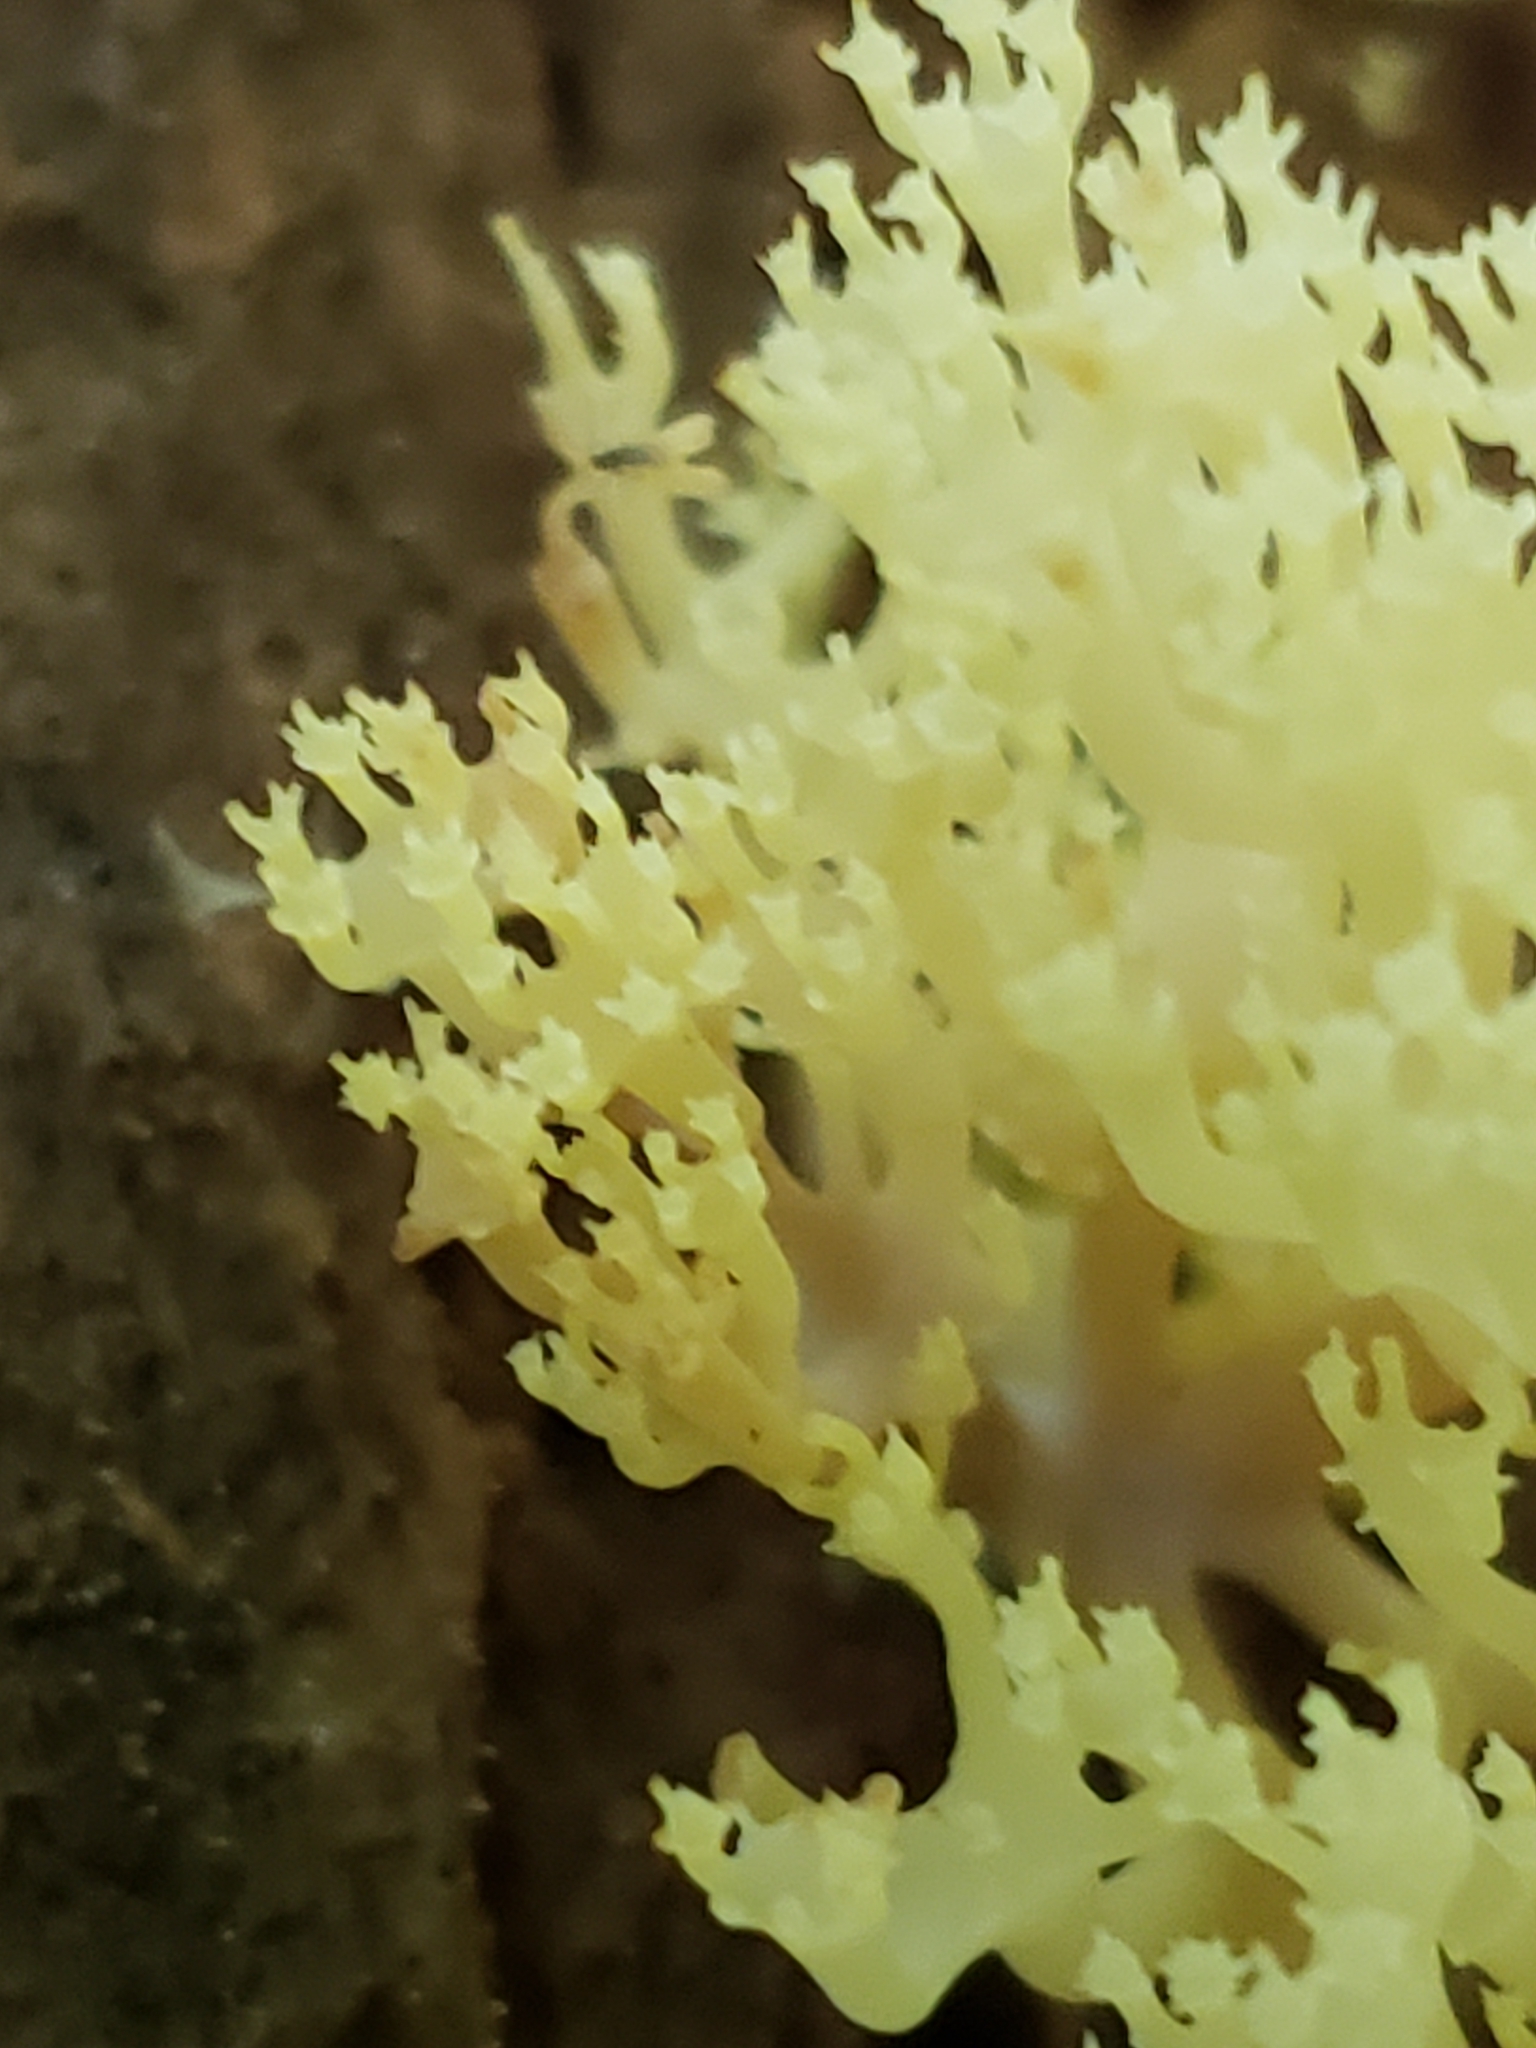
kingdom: Fungi
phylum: Basidiomycota
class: Agaricomycetes
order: Russulales
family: Auriscalpiaceae
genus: Artomyces
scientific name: Artomyces pyxidatus
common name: Crown-tipped coral fungus
